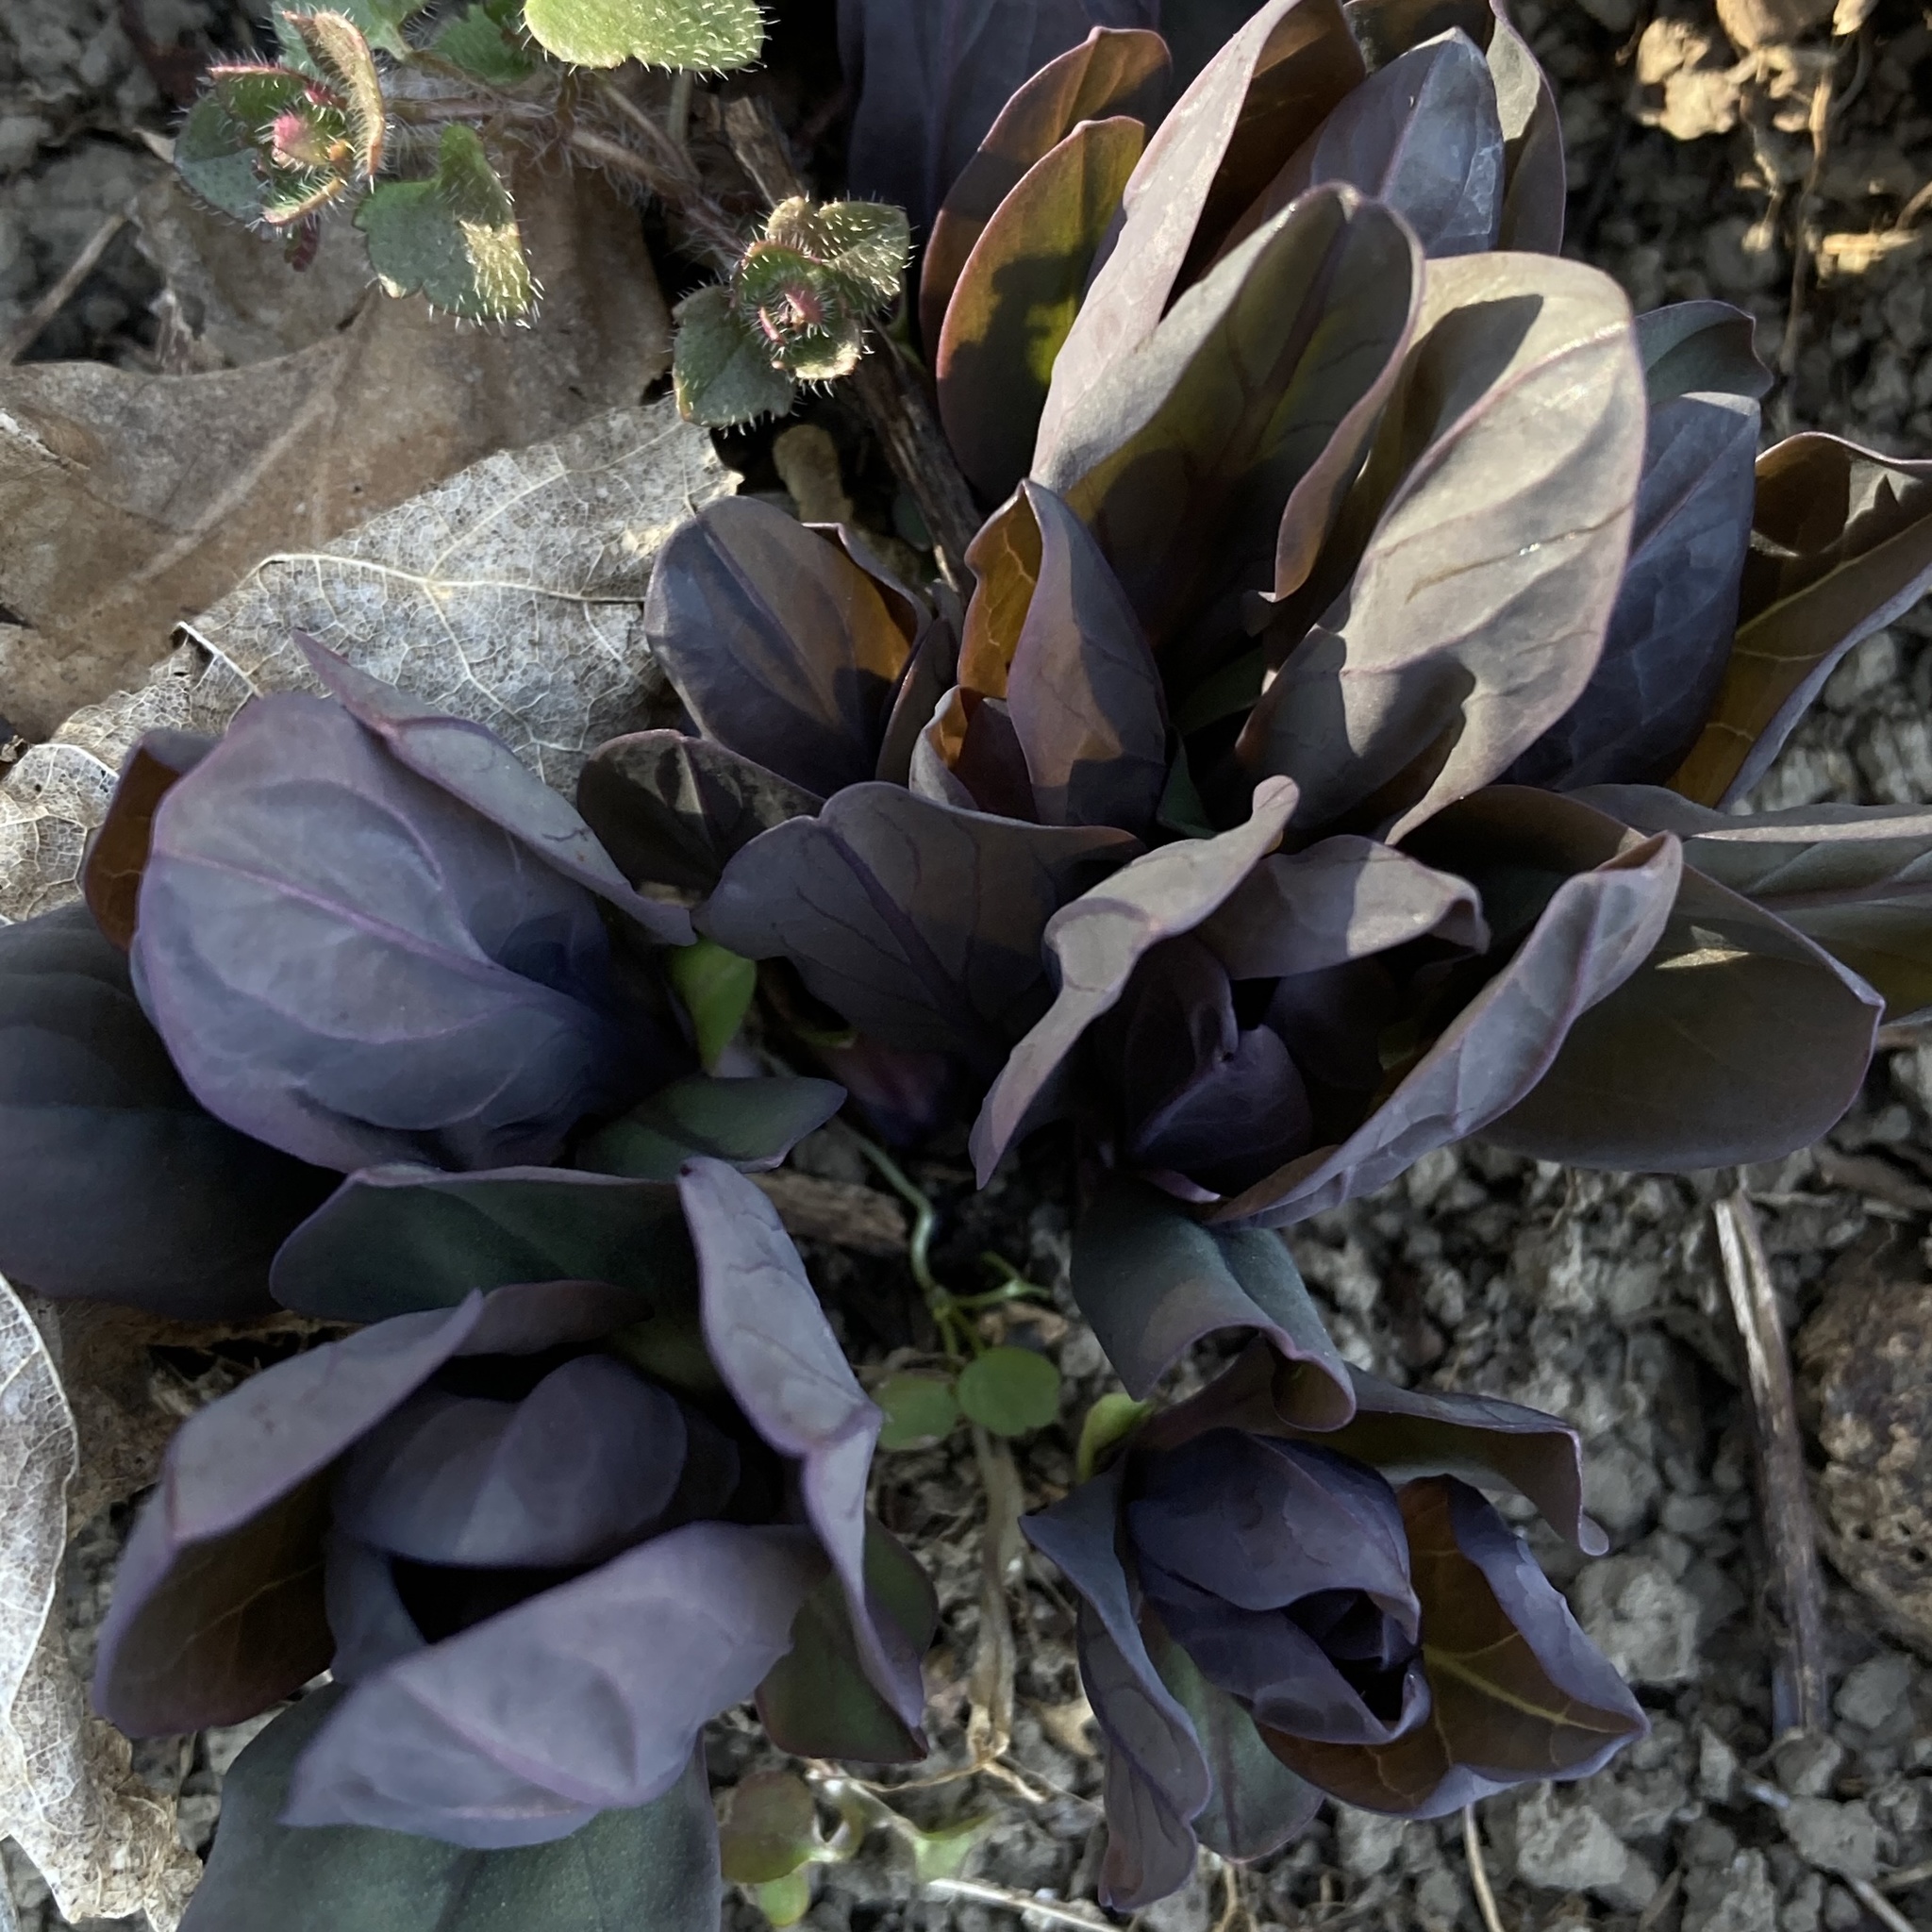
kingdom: Plantae
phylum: Tracheophyta
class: Magnoliopsida
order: Boraginales
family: Boraginaceae
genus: Mertensia
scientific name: Mertensia virginica
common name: Virginia bluebells
